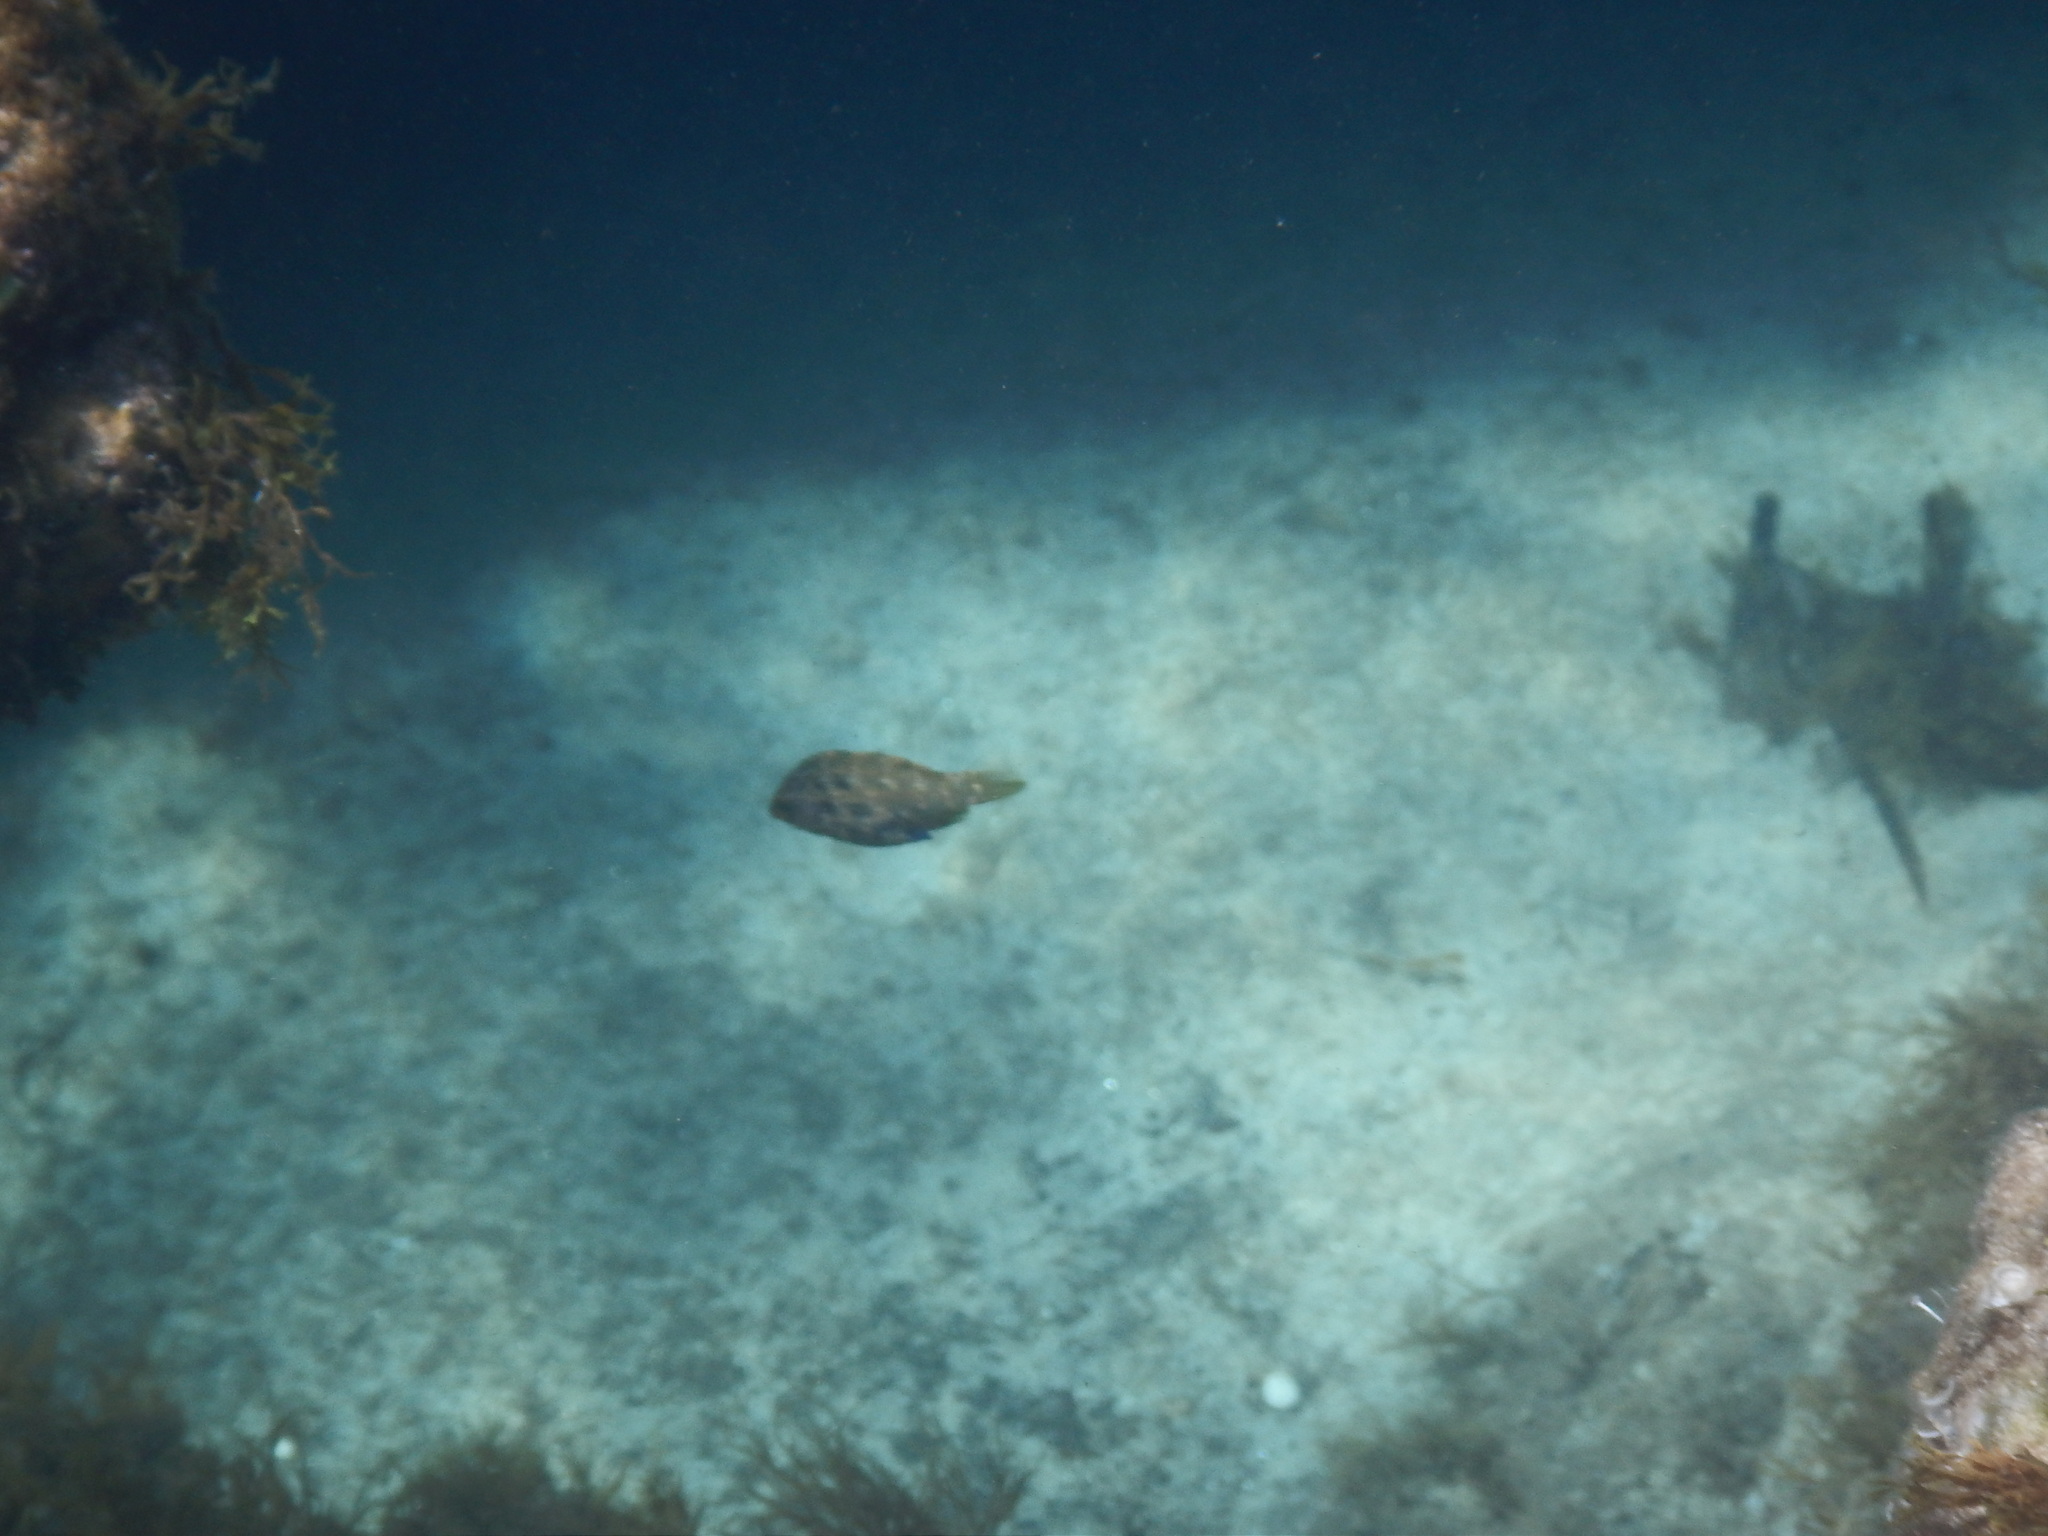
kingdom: Animalia
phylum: Chordata
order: Perciformes
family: Labridae
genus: Symphodus
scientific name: Symphodus roissali
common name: Five-spotted wrasse
